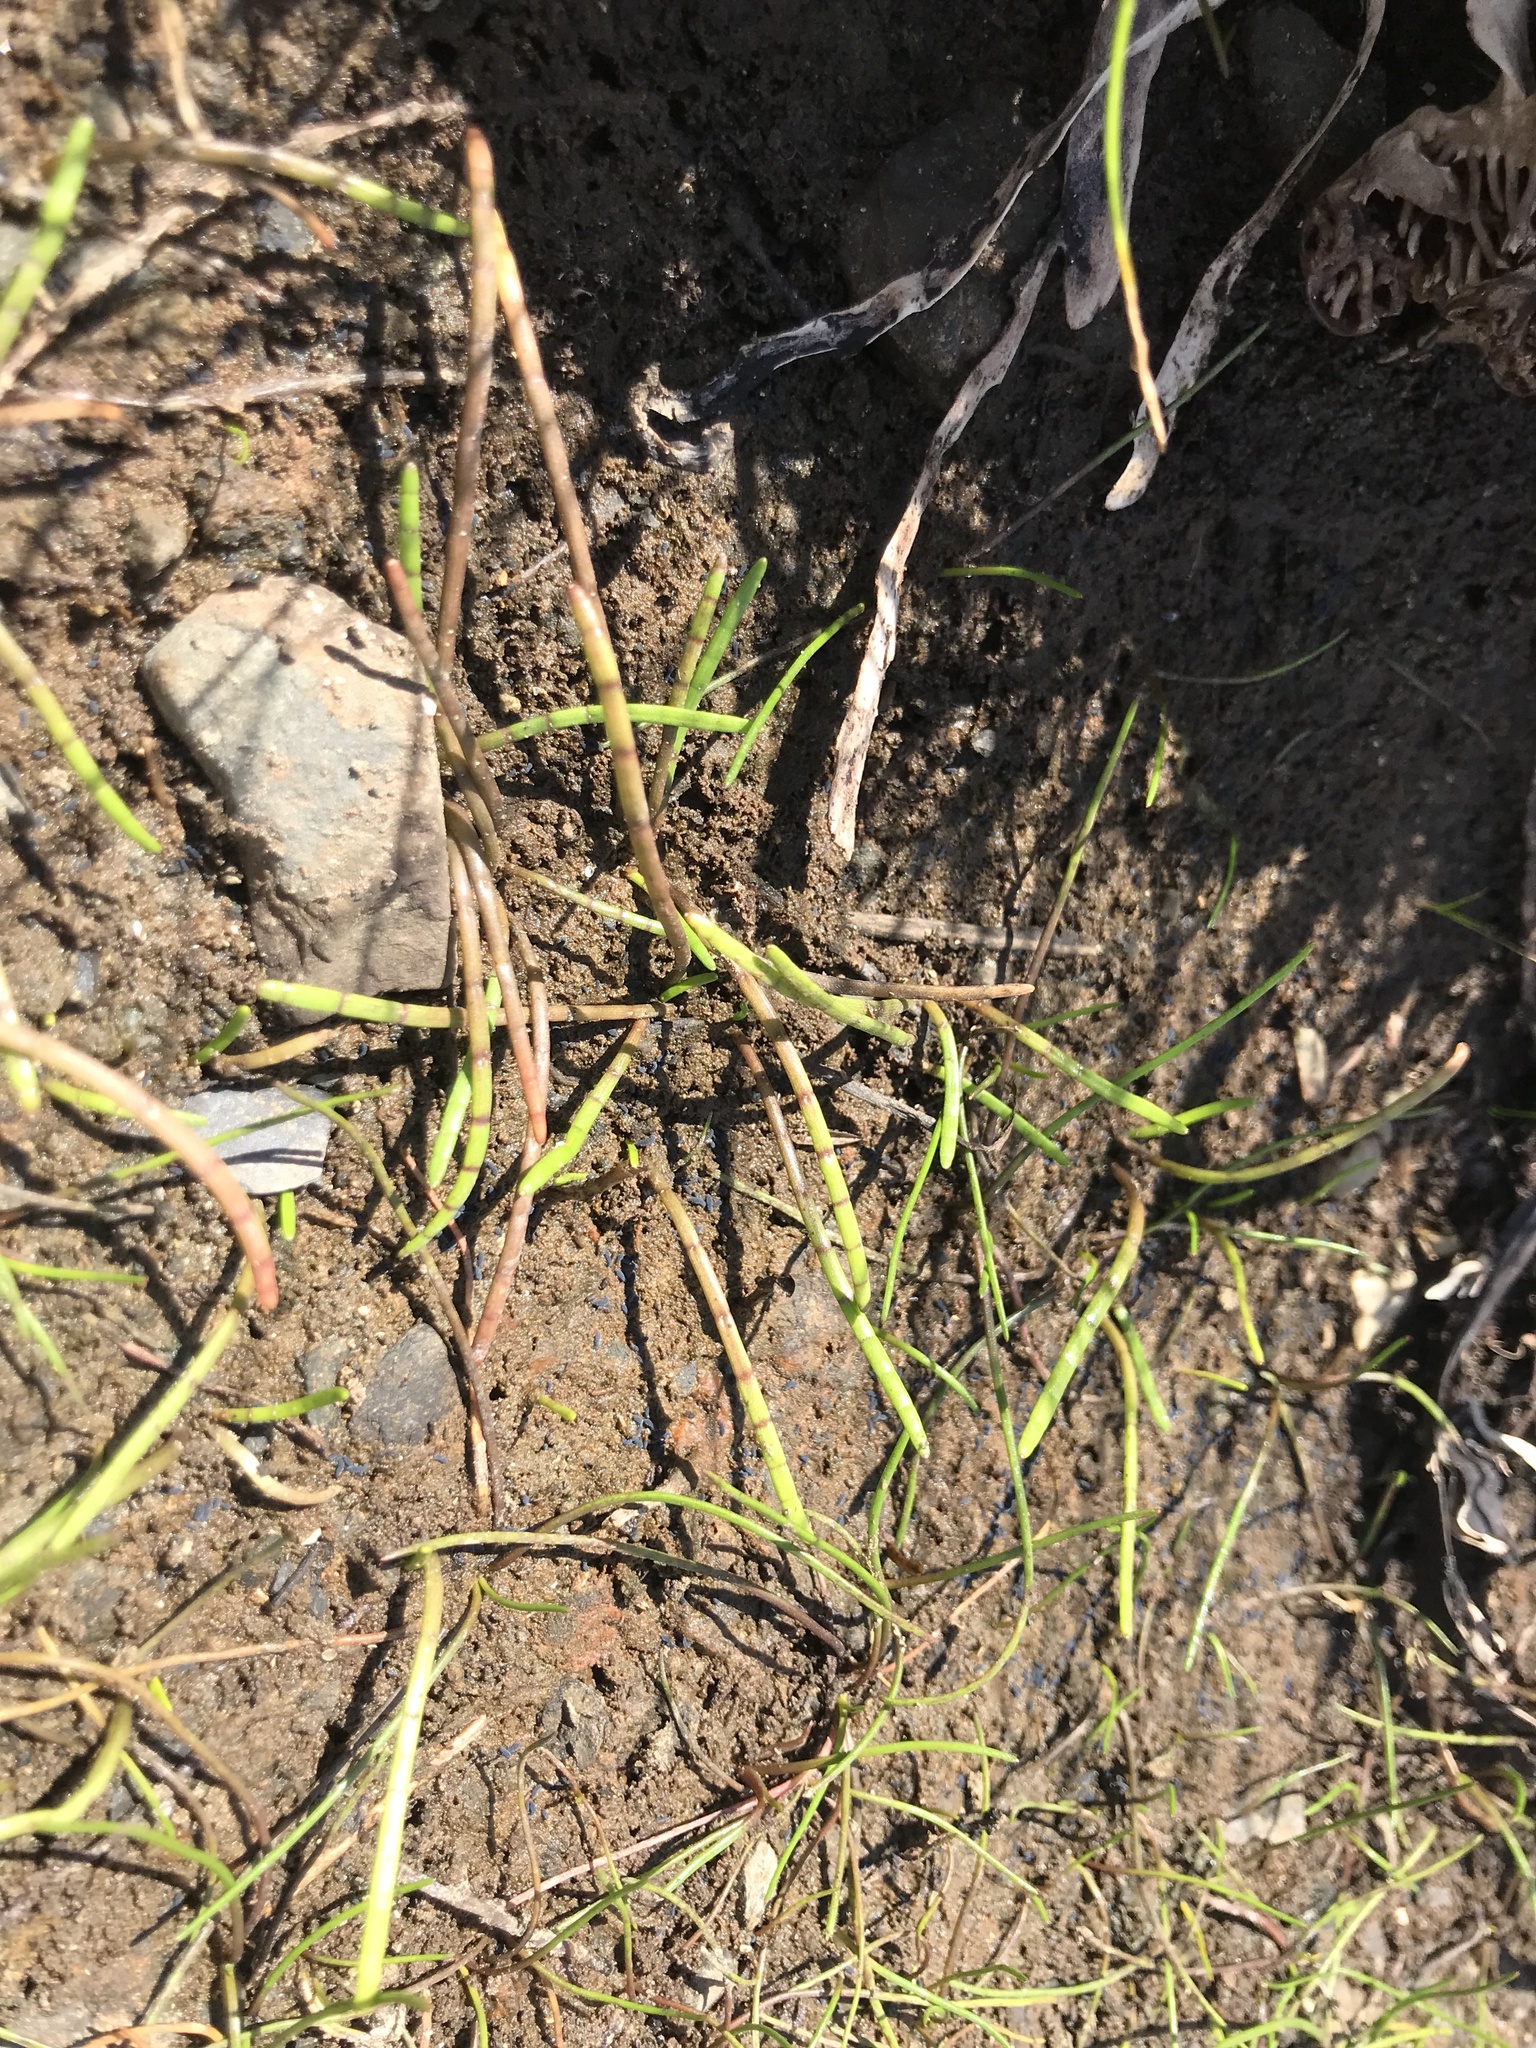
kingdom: Plantae
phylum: Tracheophyta
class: Liliopsida
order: Alismatales
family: Juncaginaceae
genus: Triglochin
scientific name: Triglochin striata
